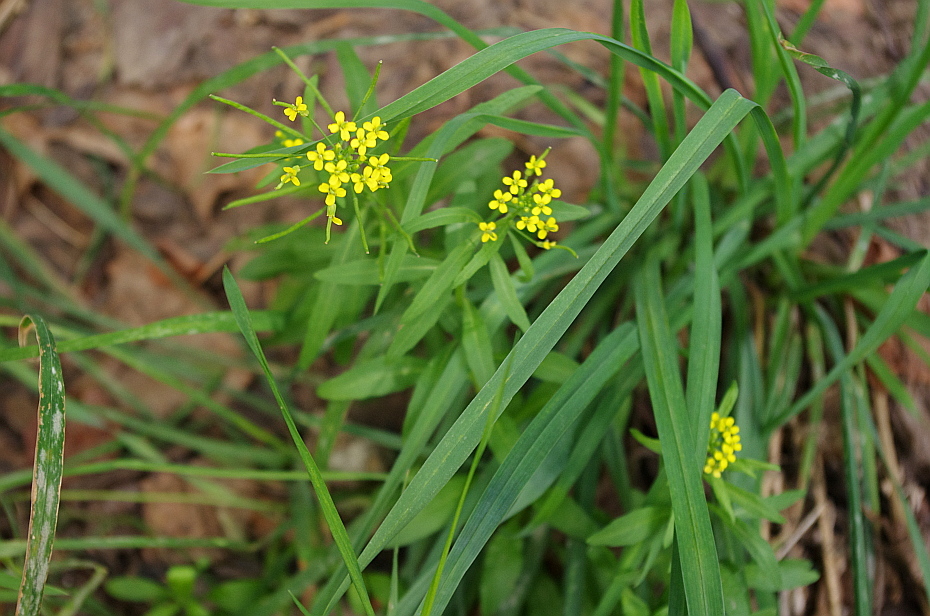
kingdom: Plantae
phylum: Tracheophyta
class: Magnoliopsida
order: Brassicales
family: Brassicaceae
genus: Erysimum
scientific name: Erysimum cheiranthoides
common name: Treacle mustard
